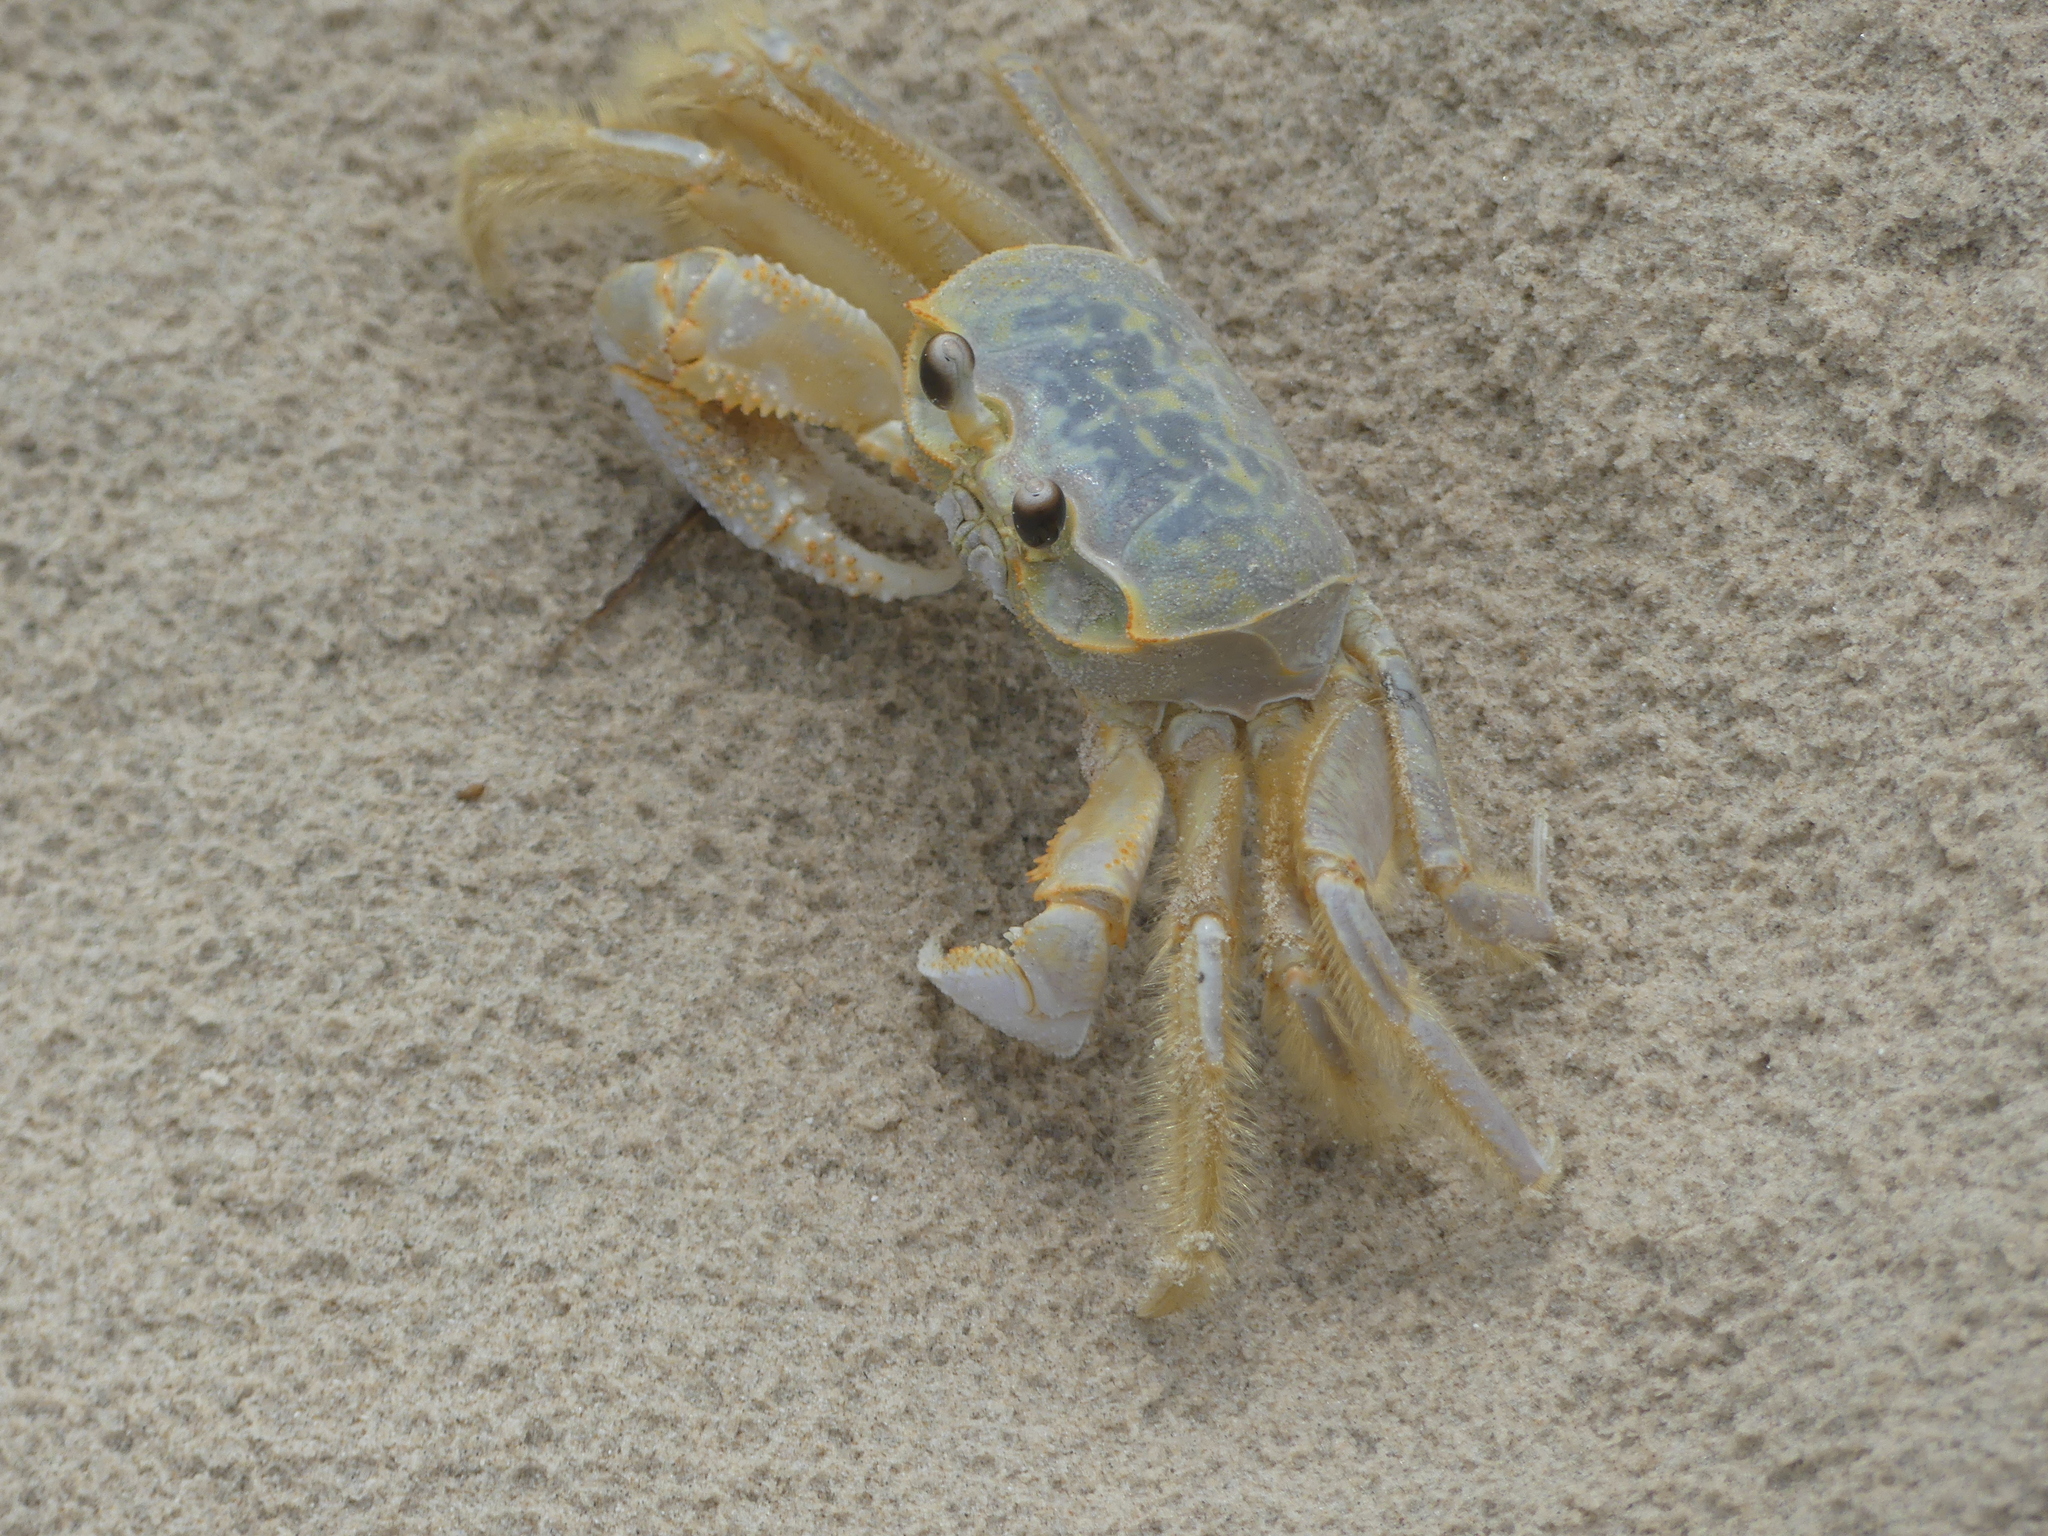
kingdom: Animalia
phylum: Arthropoda
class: Malacostraca
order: Decapoda
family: Ocypodidae
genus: Ocypode
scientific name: Ocypode quadrata
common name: Ghost crab
